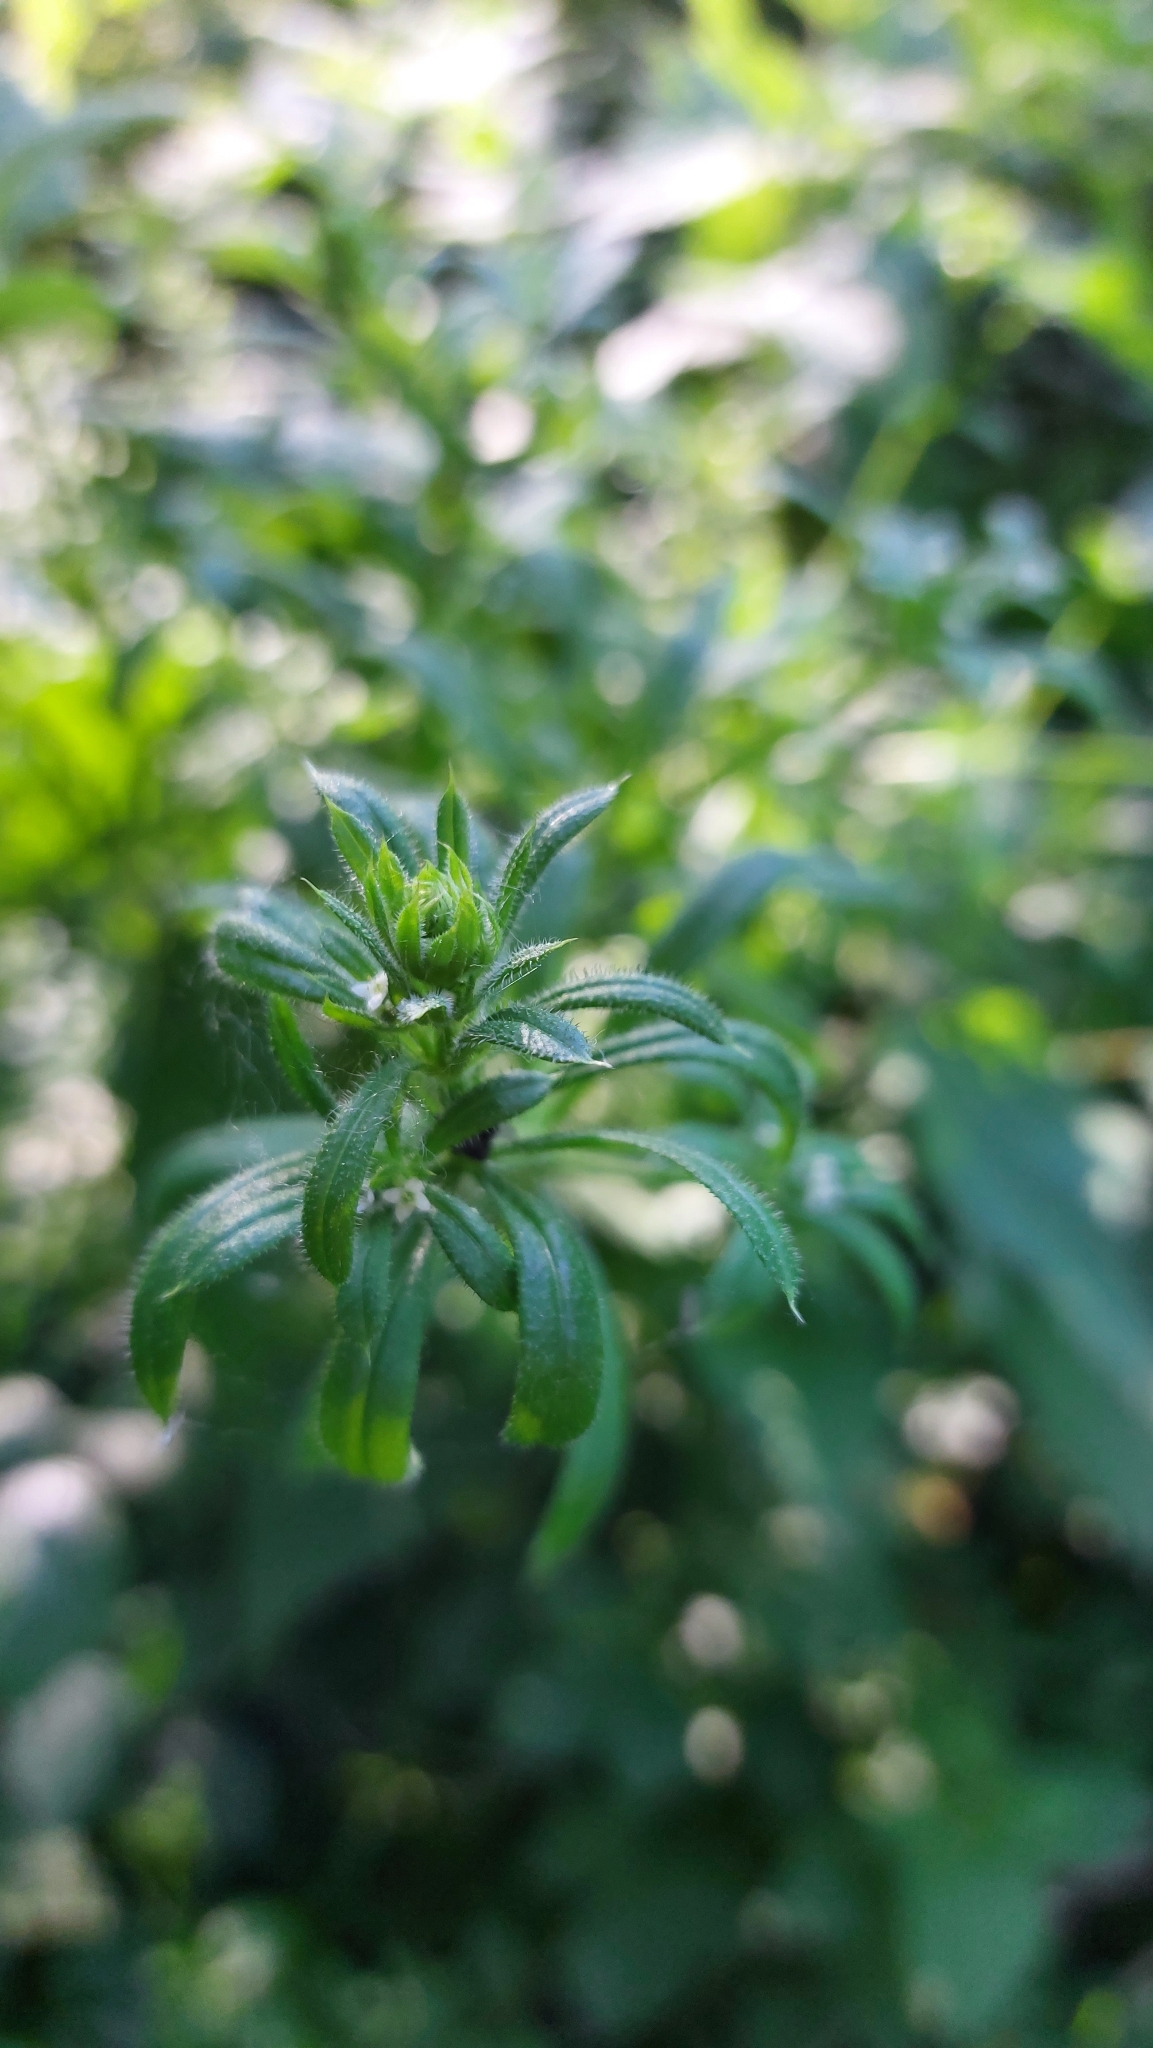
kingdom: Plantae
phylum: Tracheophyta
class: Magnoliopsida
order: Gentianales
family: Rubiaceae
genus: Galium
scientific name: Galium aparine
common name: Cleavers
